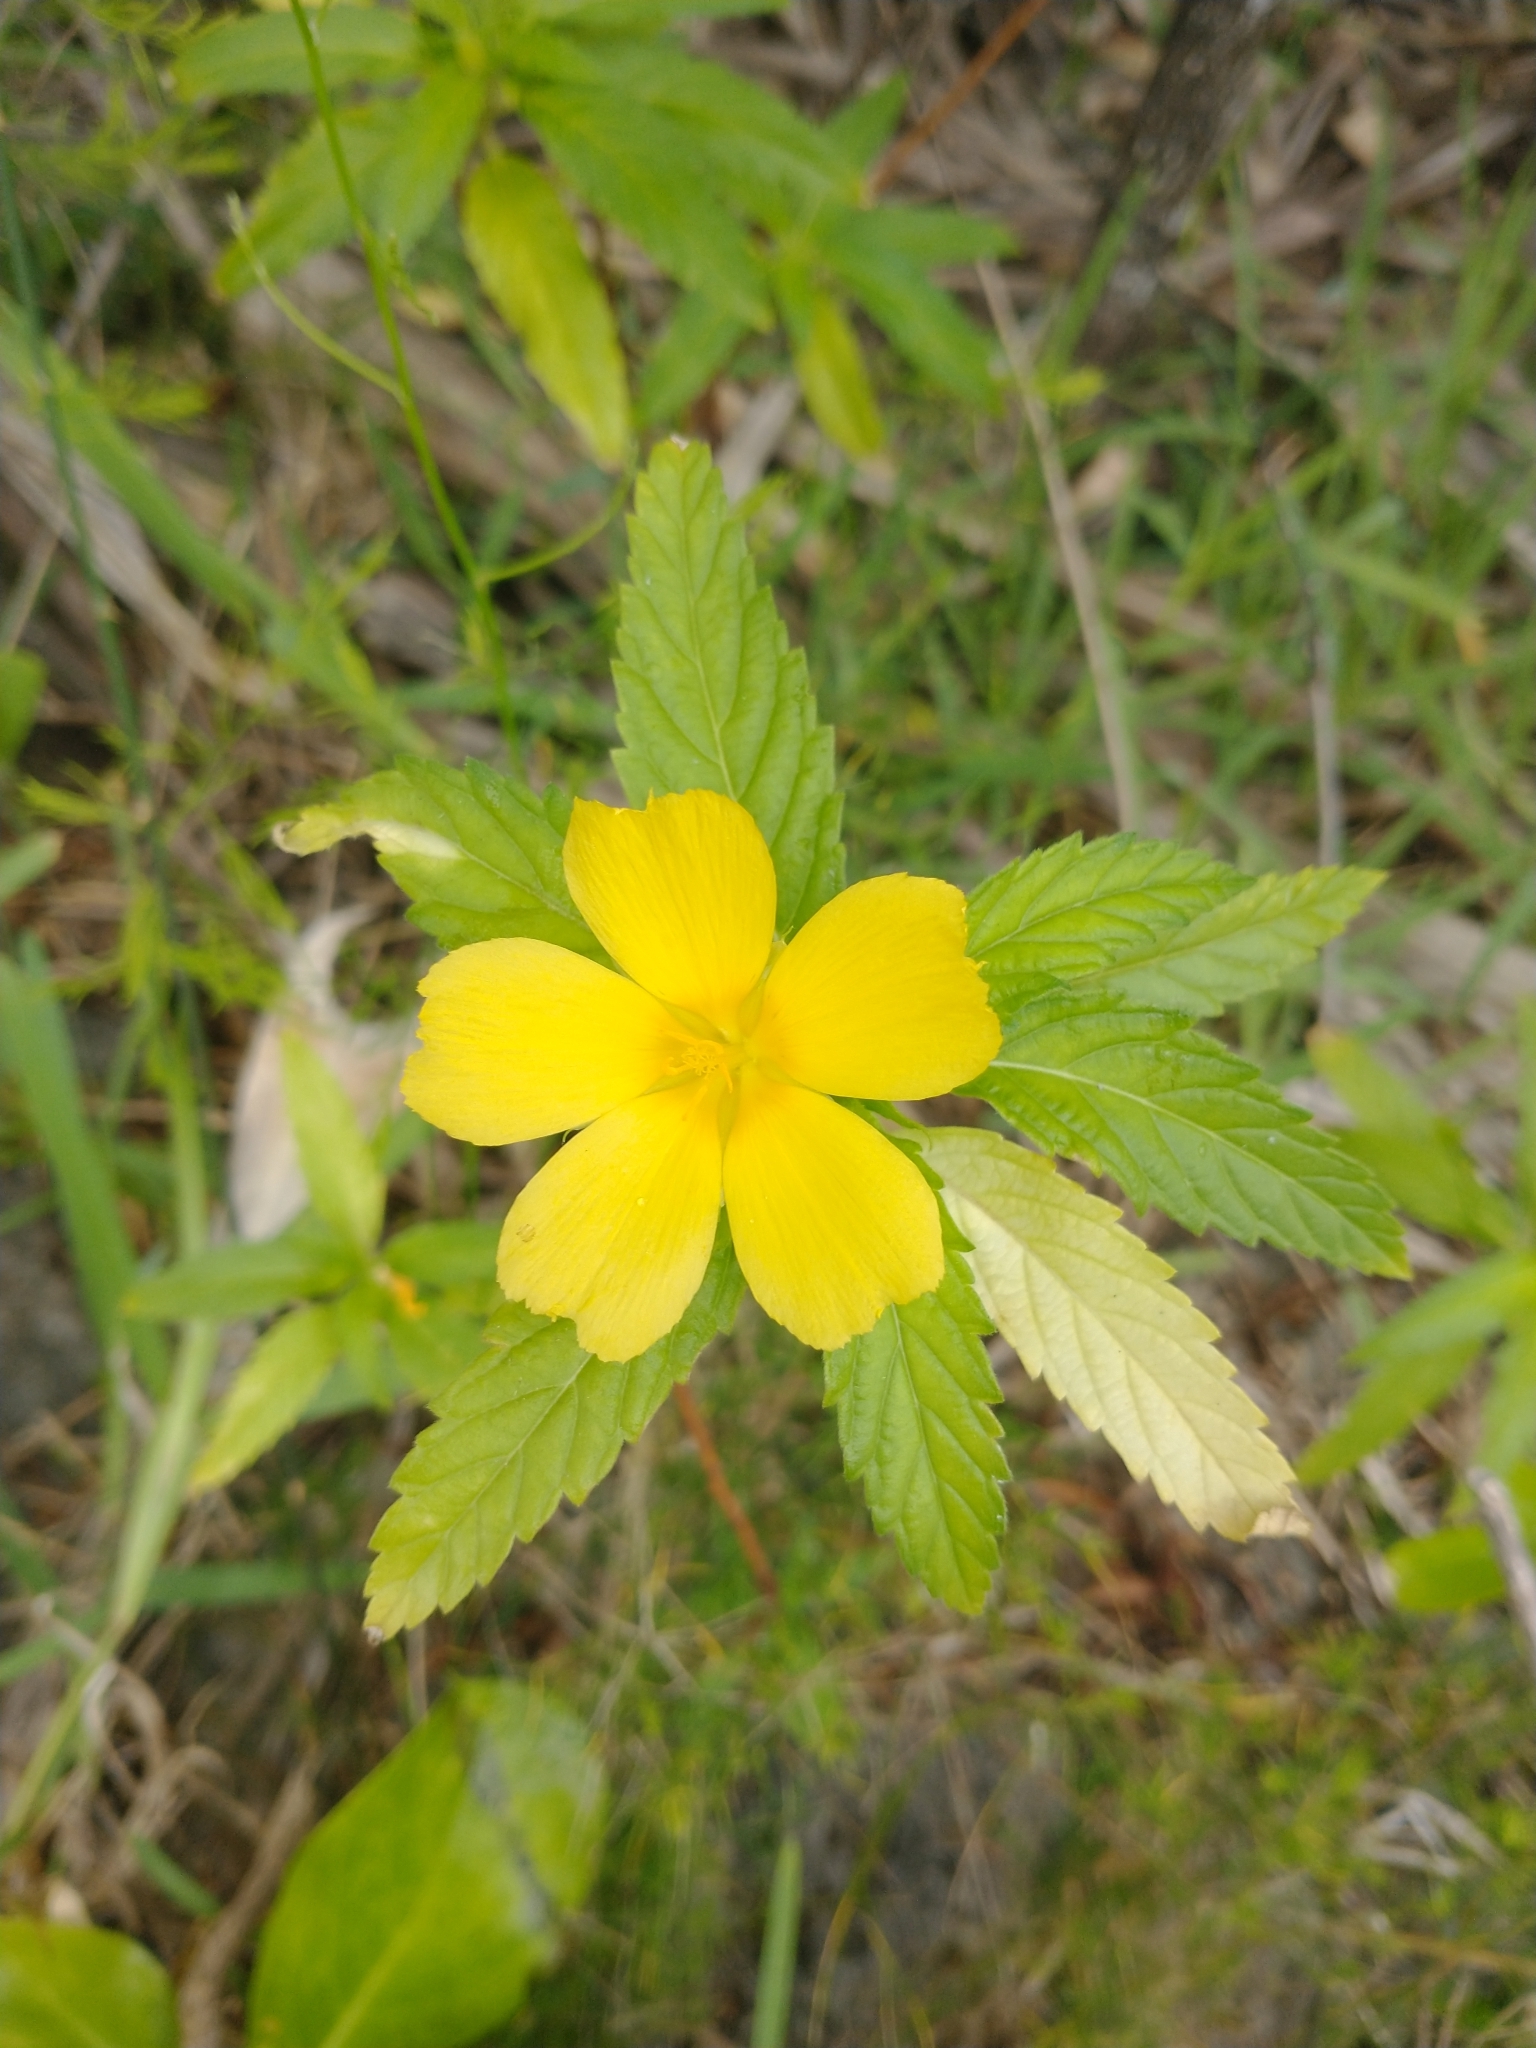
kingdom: Plantae
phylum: Tracheophyta
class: Magnoliopsida
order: Malpighiales
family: Turneraceae
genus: Turnera
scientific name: Turnera ulmifolia
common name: Ramgoat dashalong
